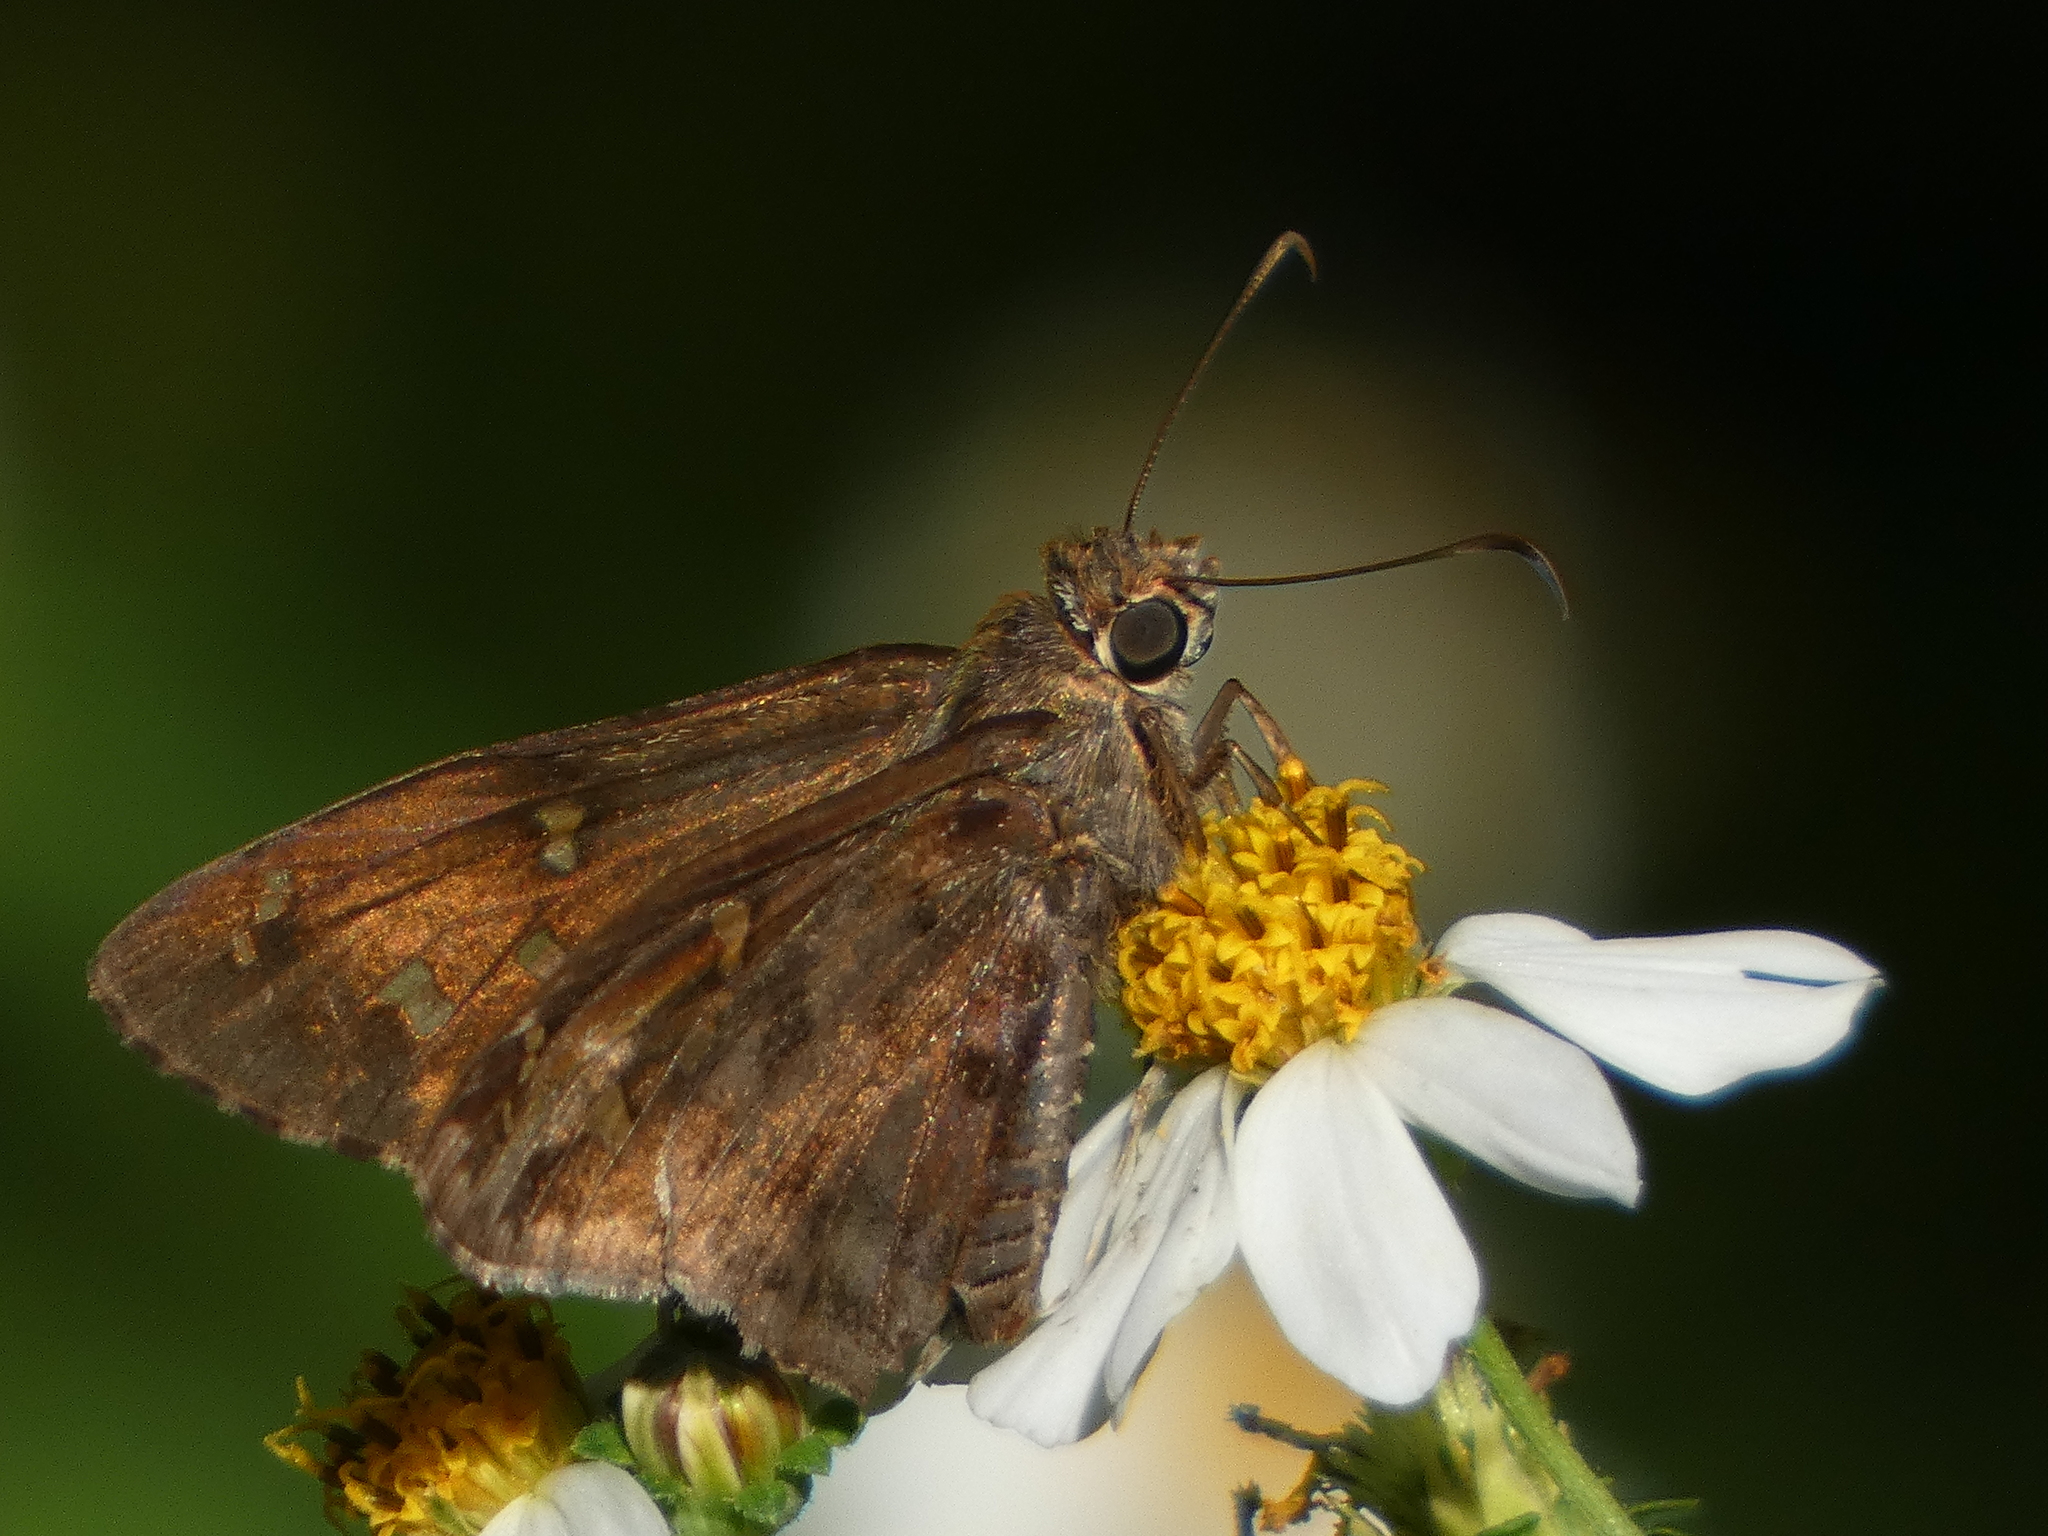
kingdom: Animalia
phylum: Arthropoda
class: Insecta
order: Lepidoptera
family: Hesperiidae
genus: Thorybes
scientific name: Thorybes
